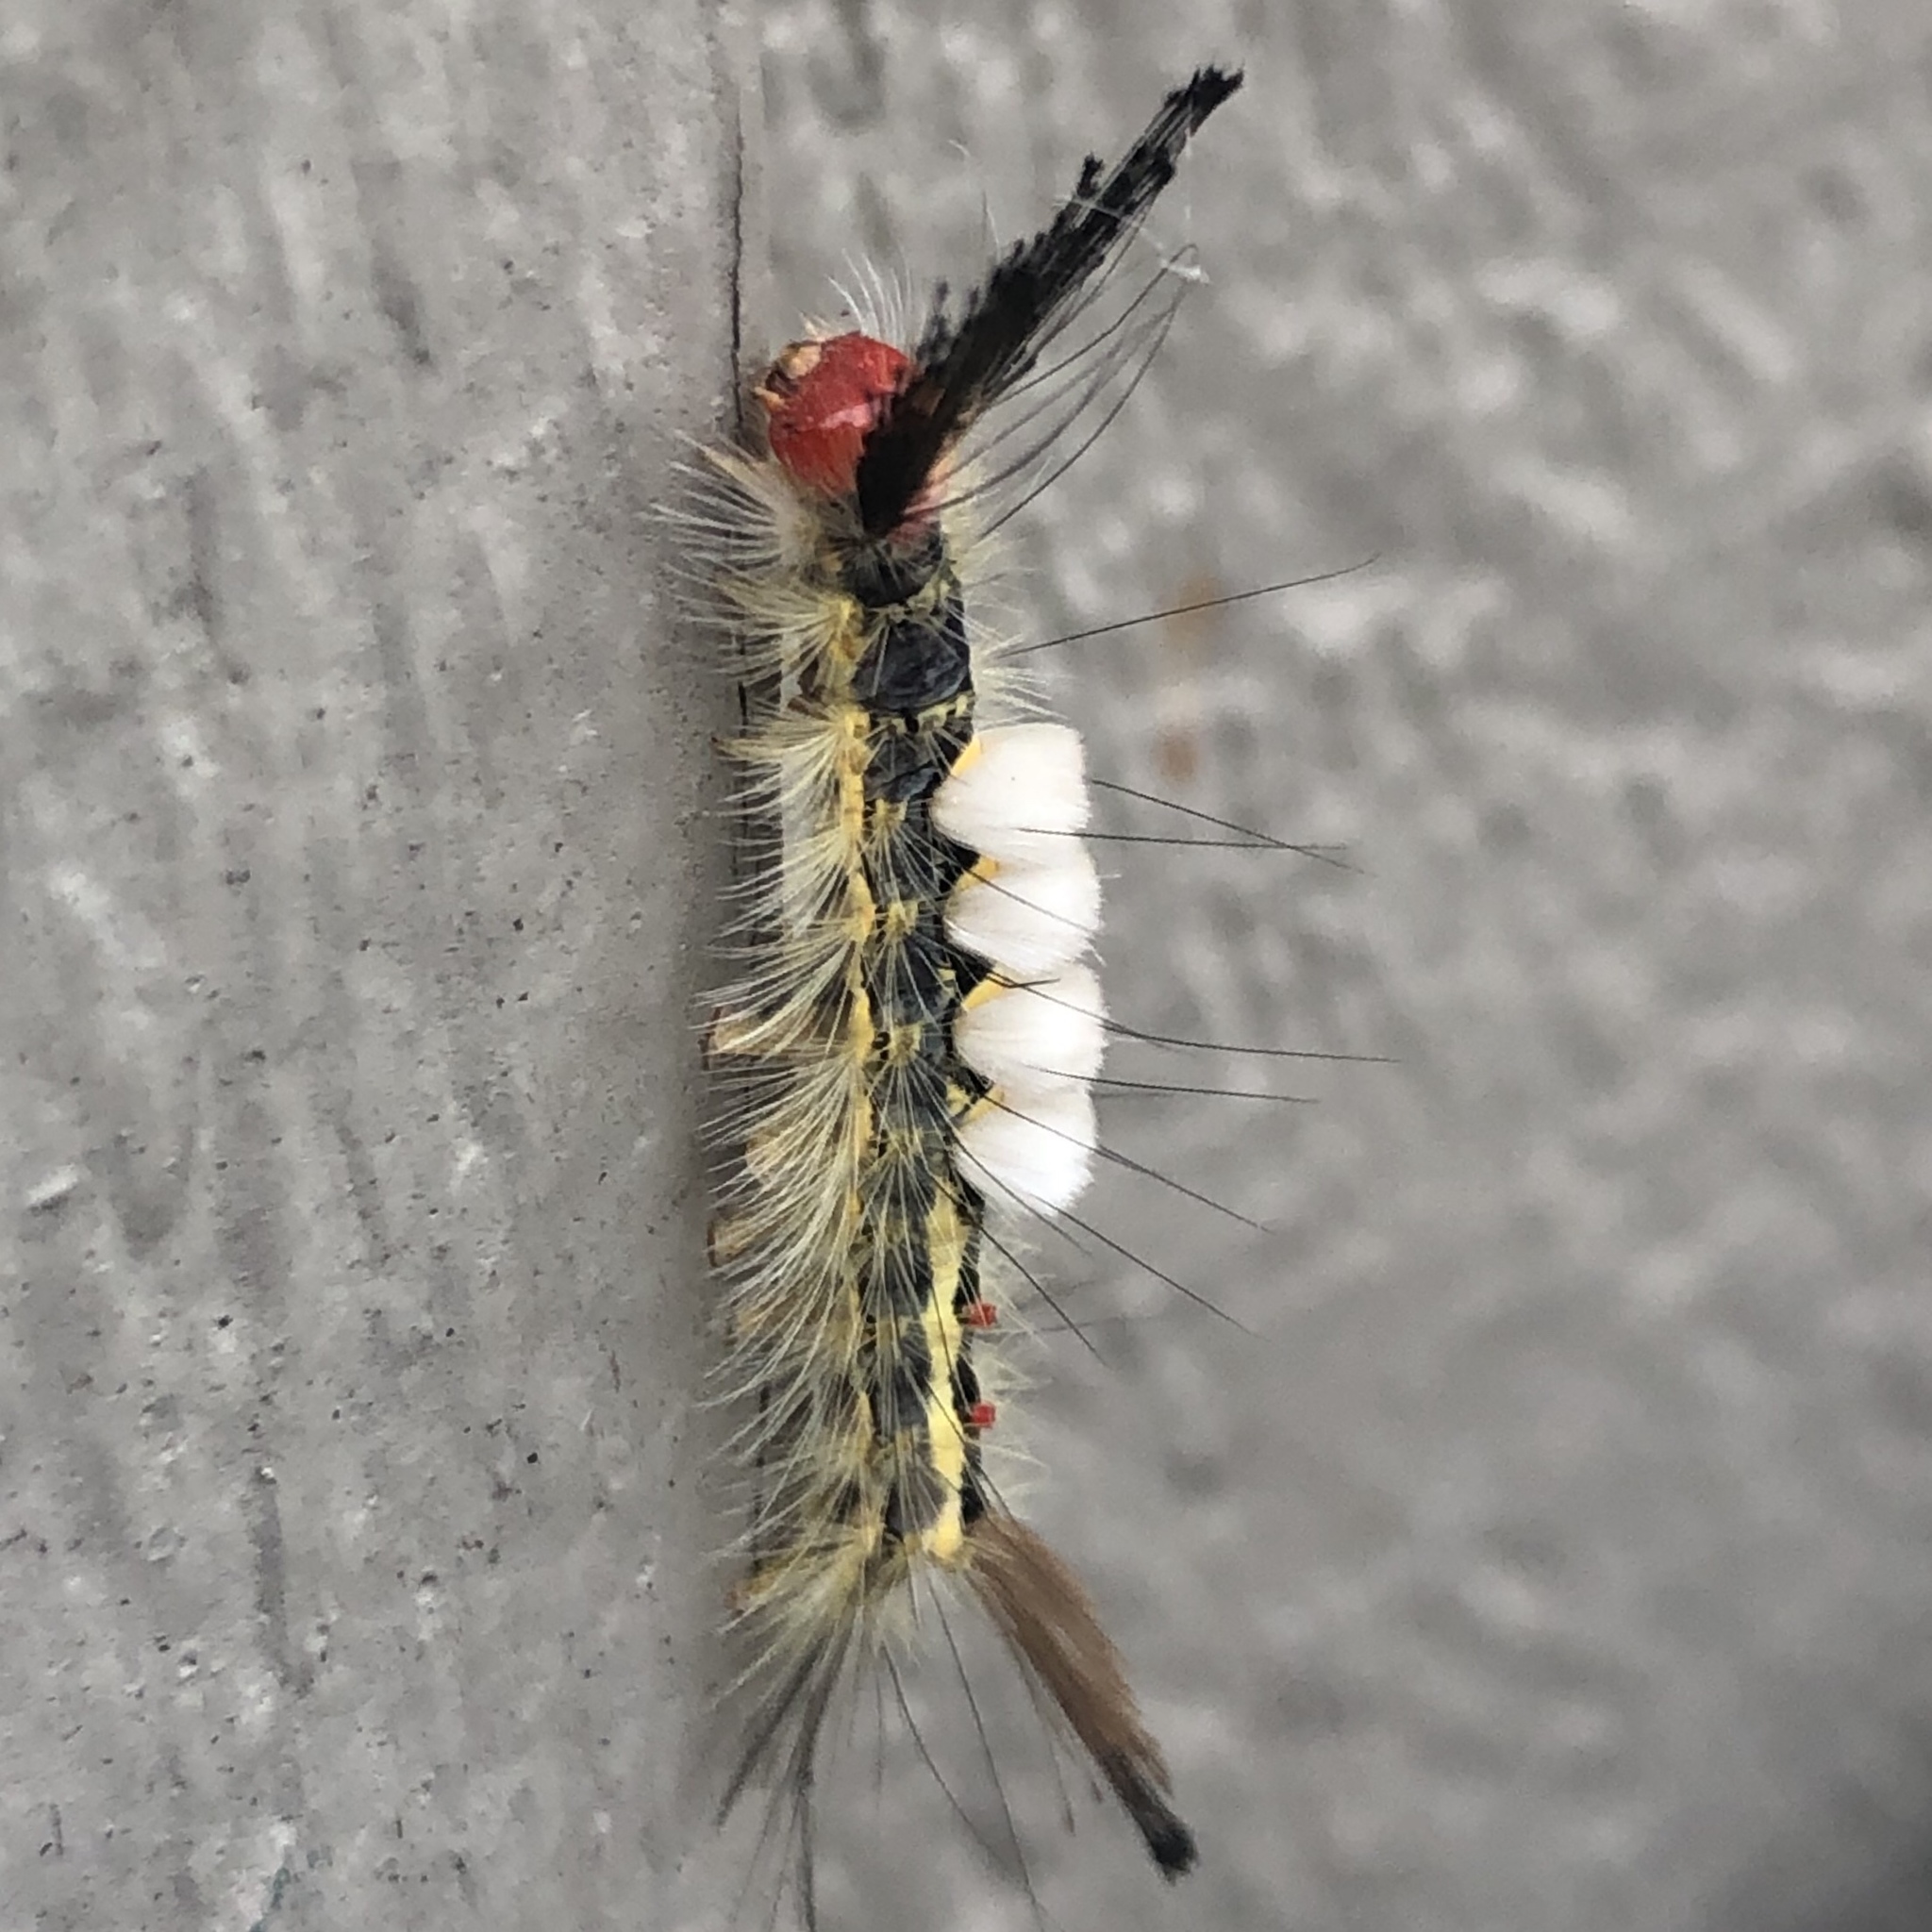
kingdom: Animalia
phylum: Arthropoda
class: Insecta
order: Lepidoptera
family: Erebidae
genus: Orgyia
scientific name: Orgyia leucostigma
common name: White-marked tussock moth
